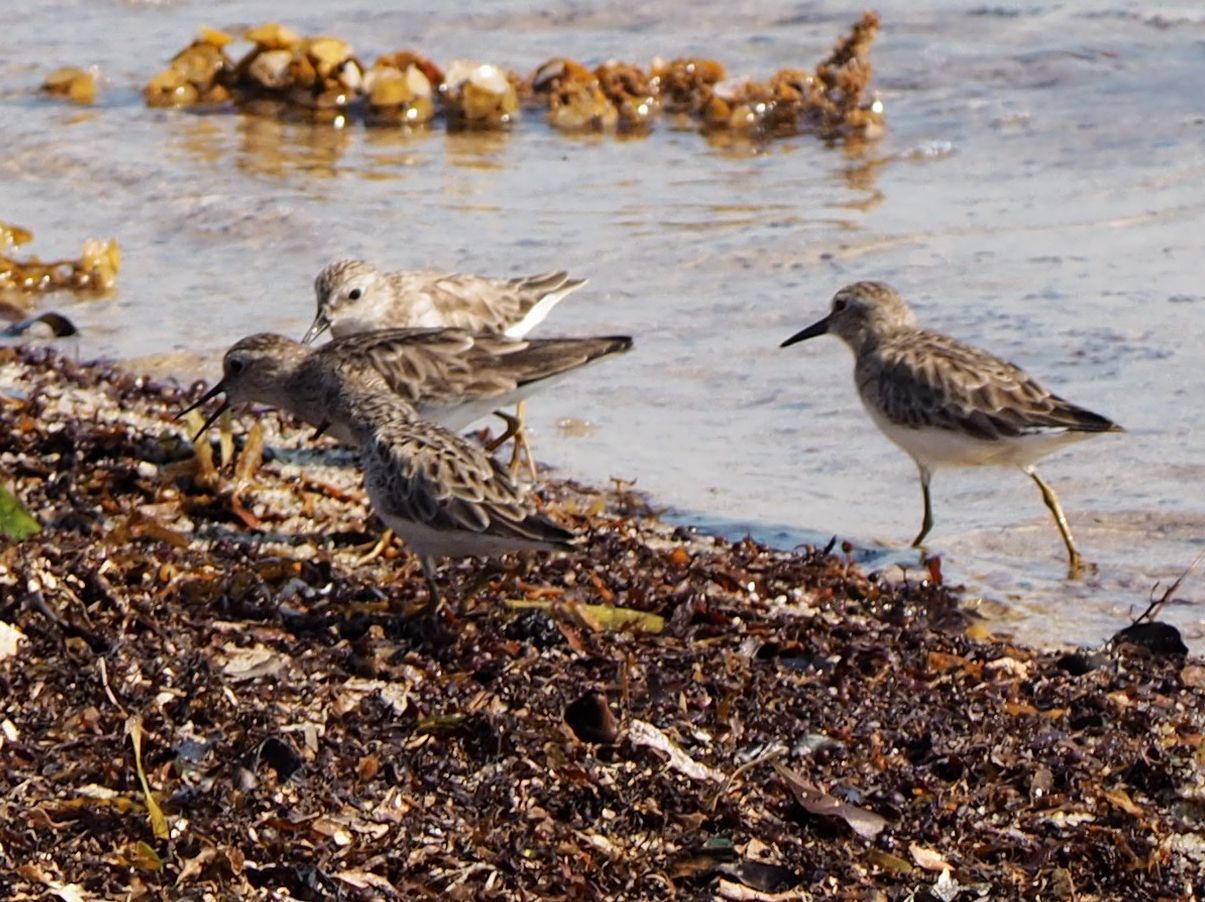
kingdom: Animalia
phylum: Chordata
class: Aves
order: Charadriiformes
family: Scolopacidae
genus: Calidris
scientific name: Calidris minutilla
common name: Least sandpiper
